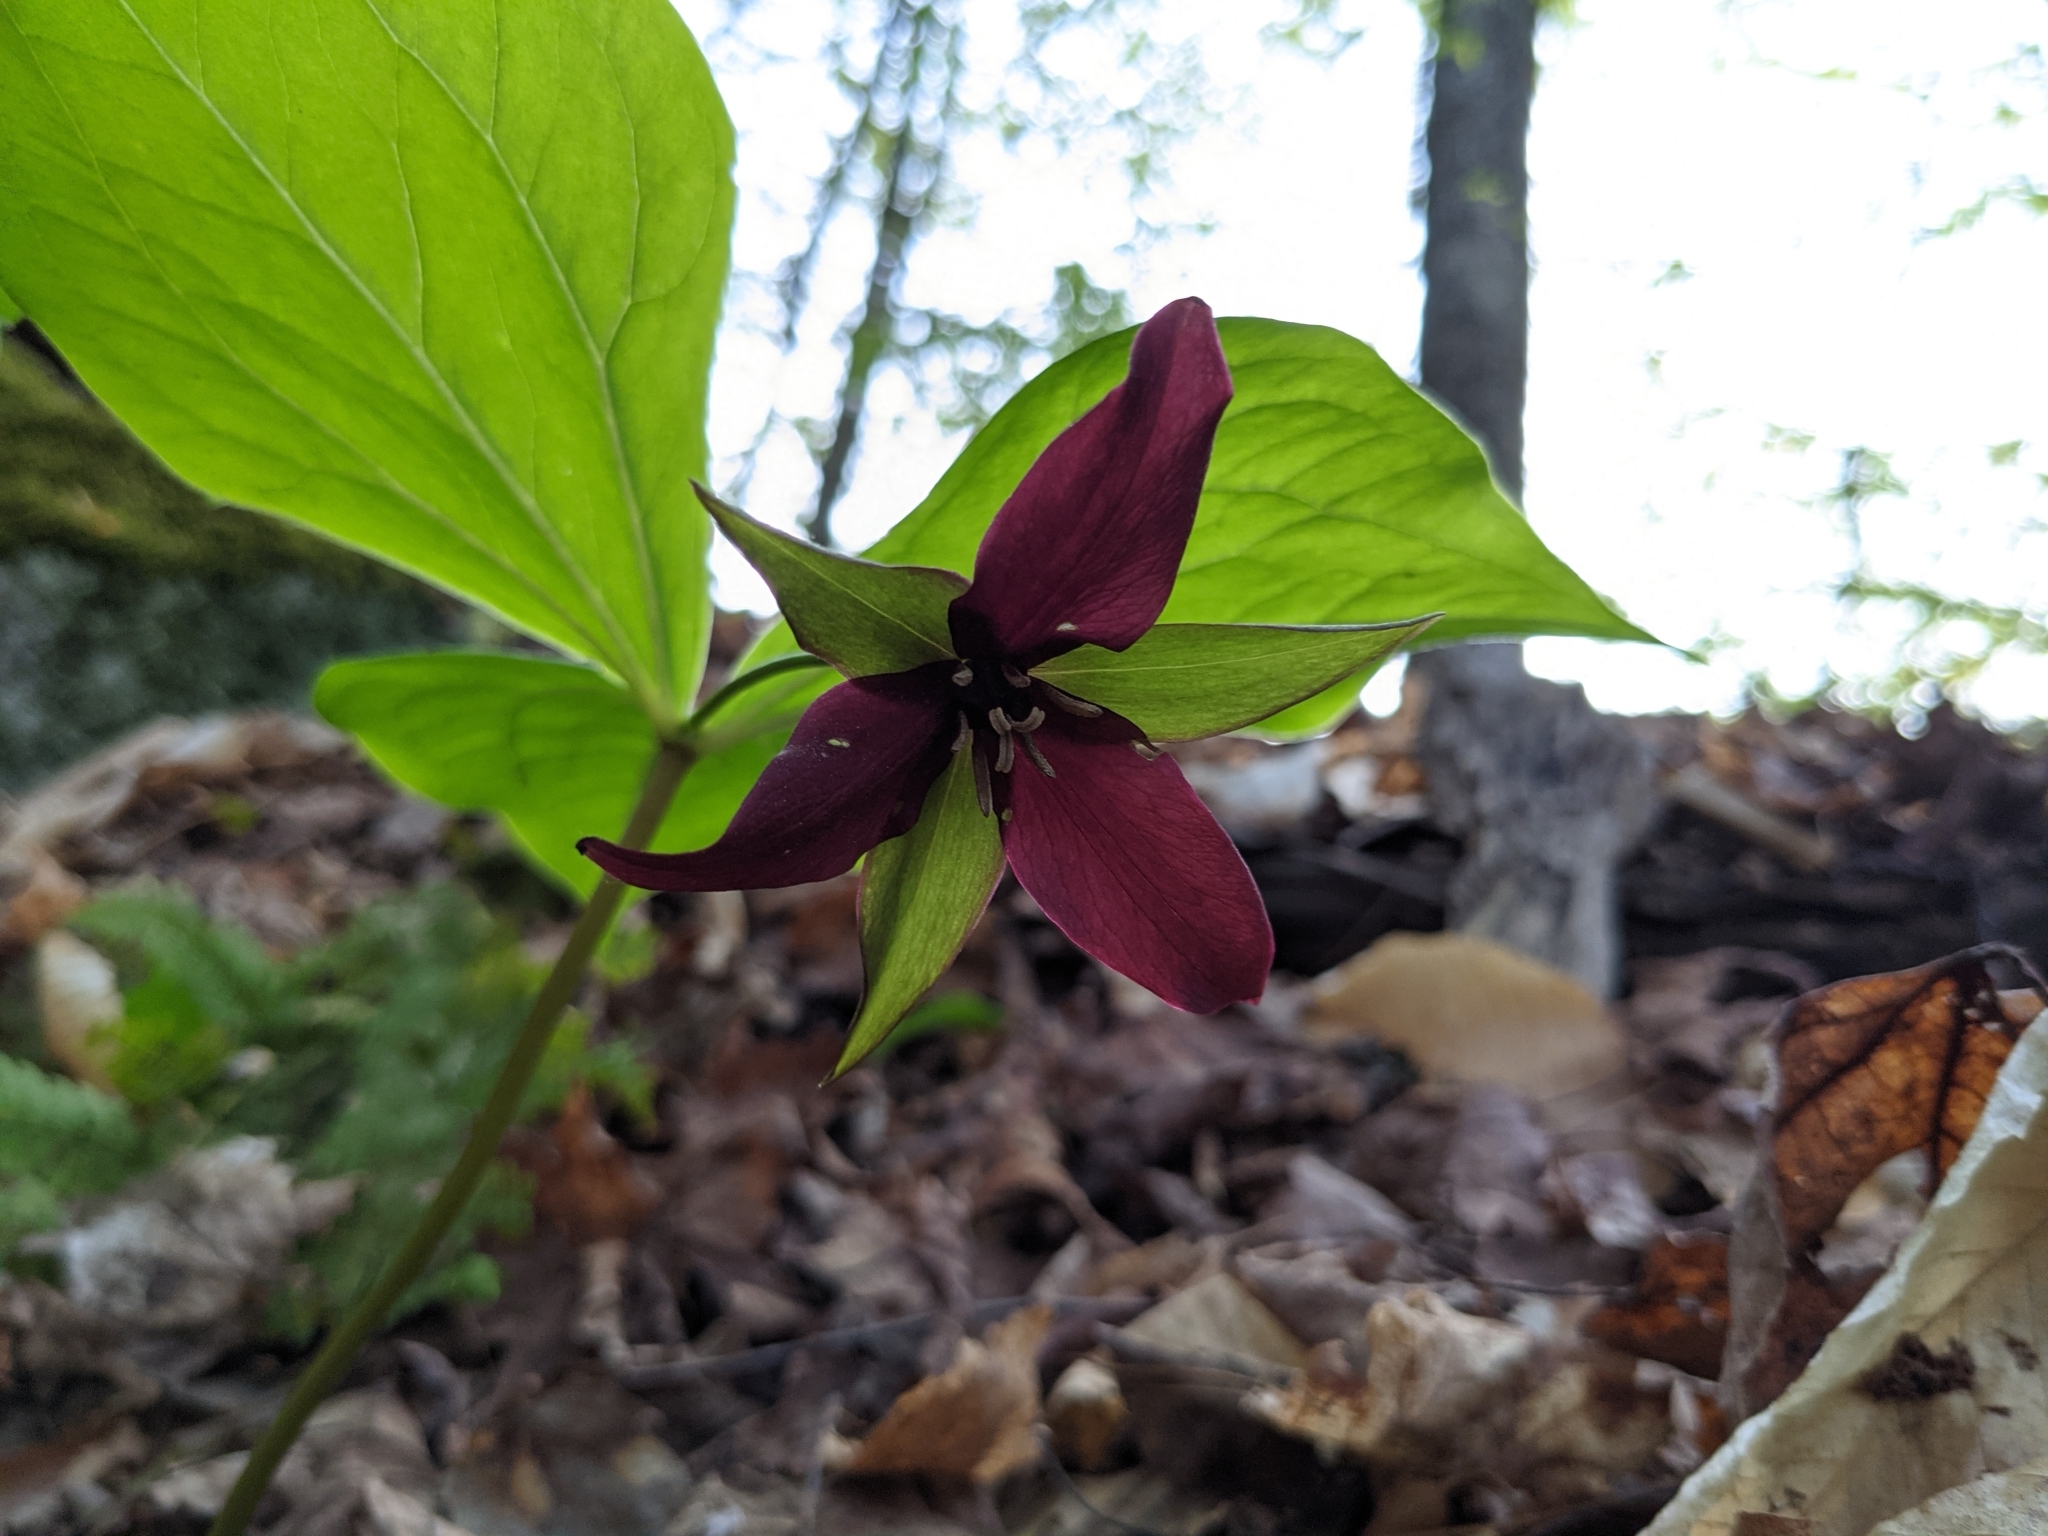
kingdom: Plantae
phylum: Tracheophyta
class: Liliopsida
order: Liliales
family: Melanthiaceae
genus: Trillium
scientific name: Trillium erectum
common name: Purple trillium
